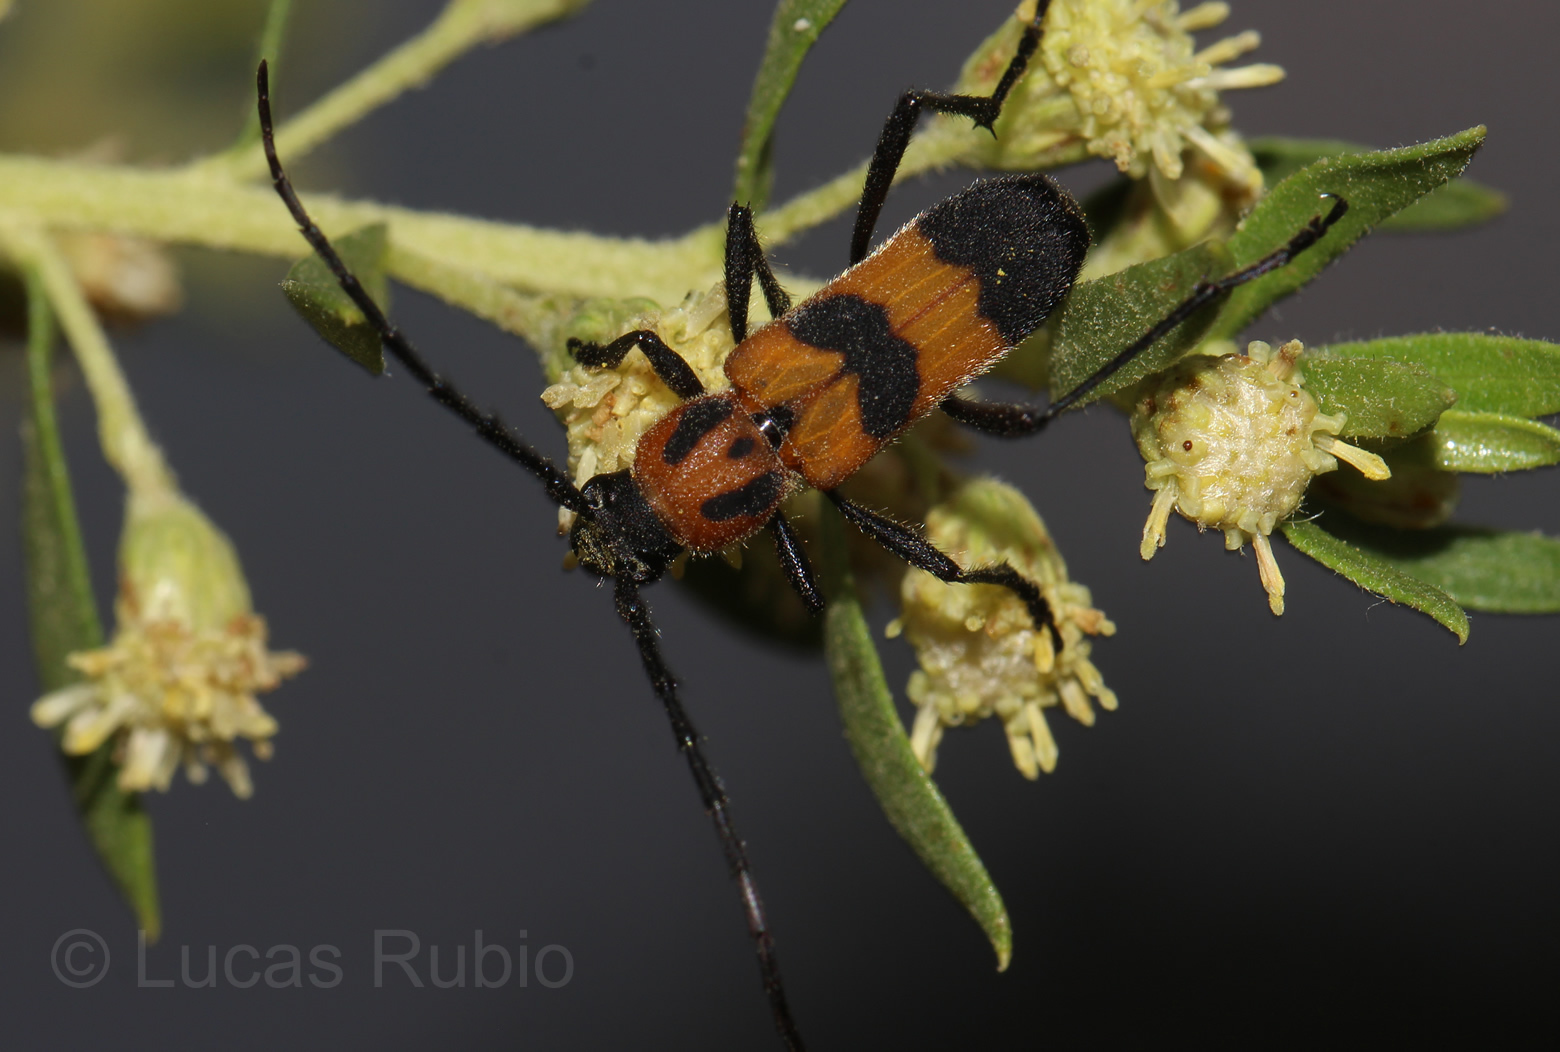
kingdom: Animalia
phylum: Arthropoda
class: Insecta
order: Coleoptera
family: Cerambycidae
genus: Erythrochiton
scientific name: Erythrochiton jucundum
